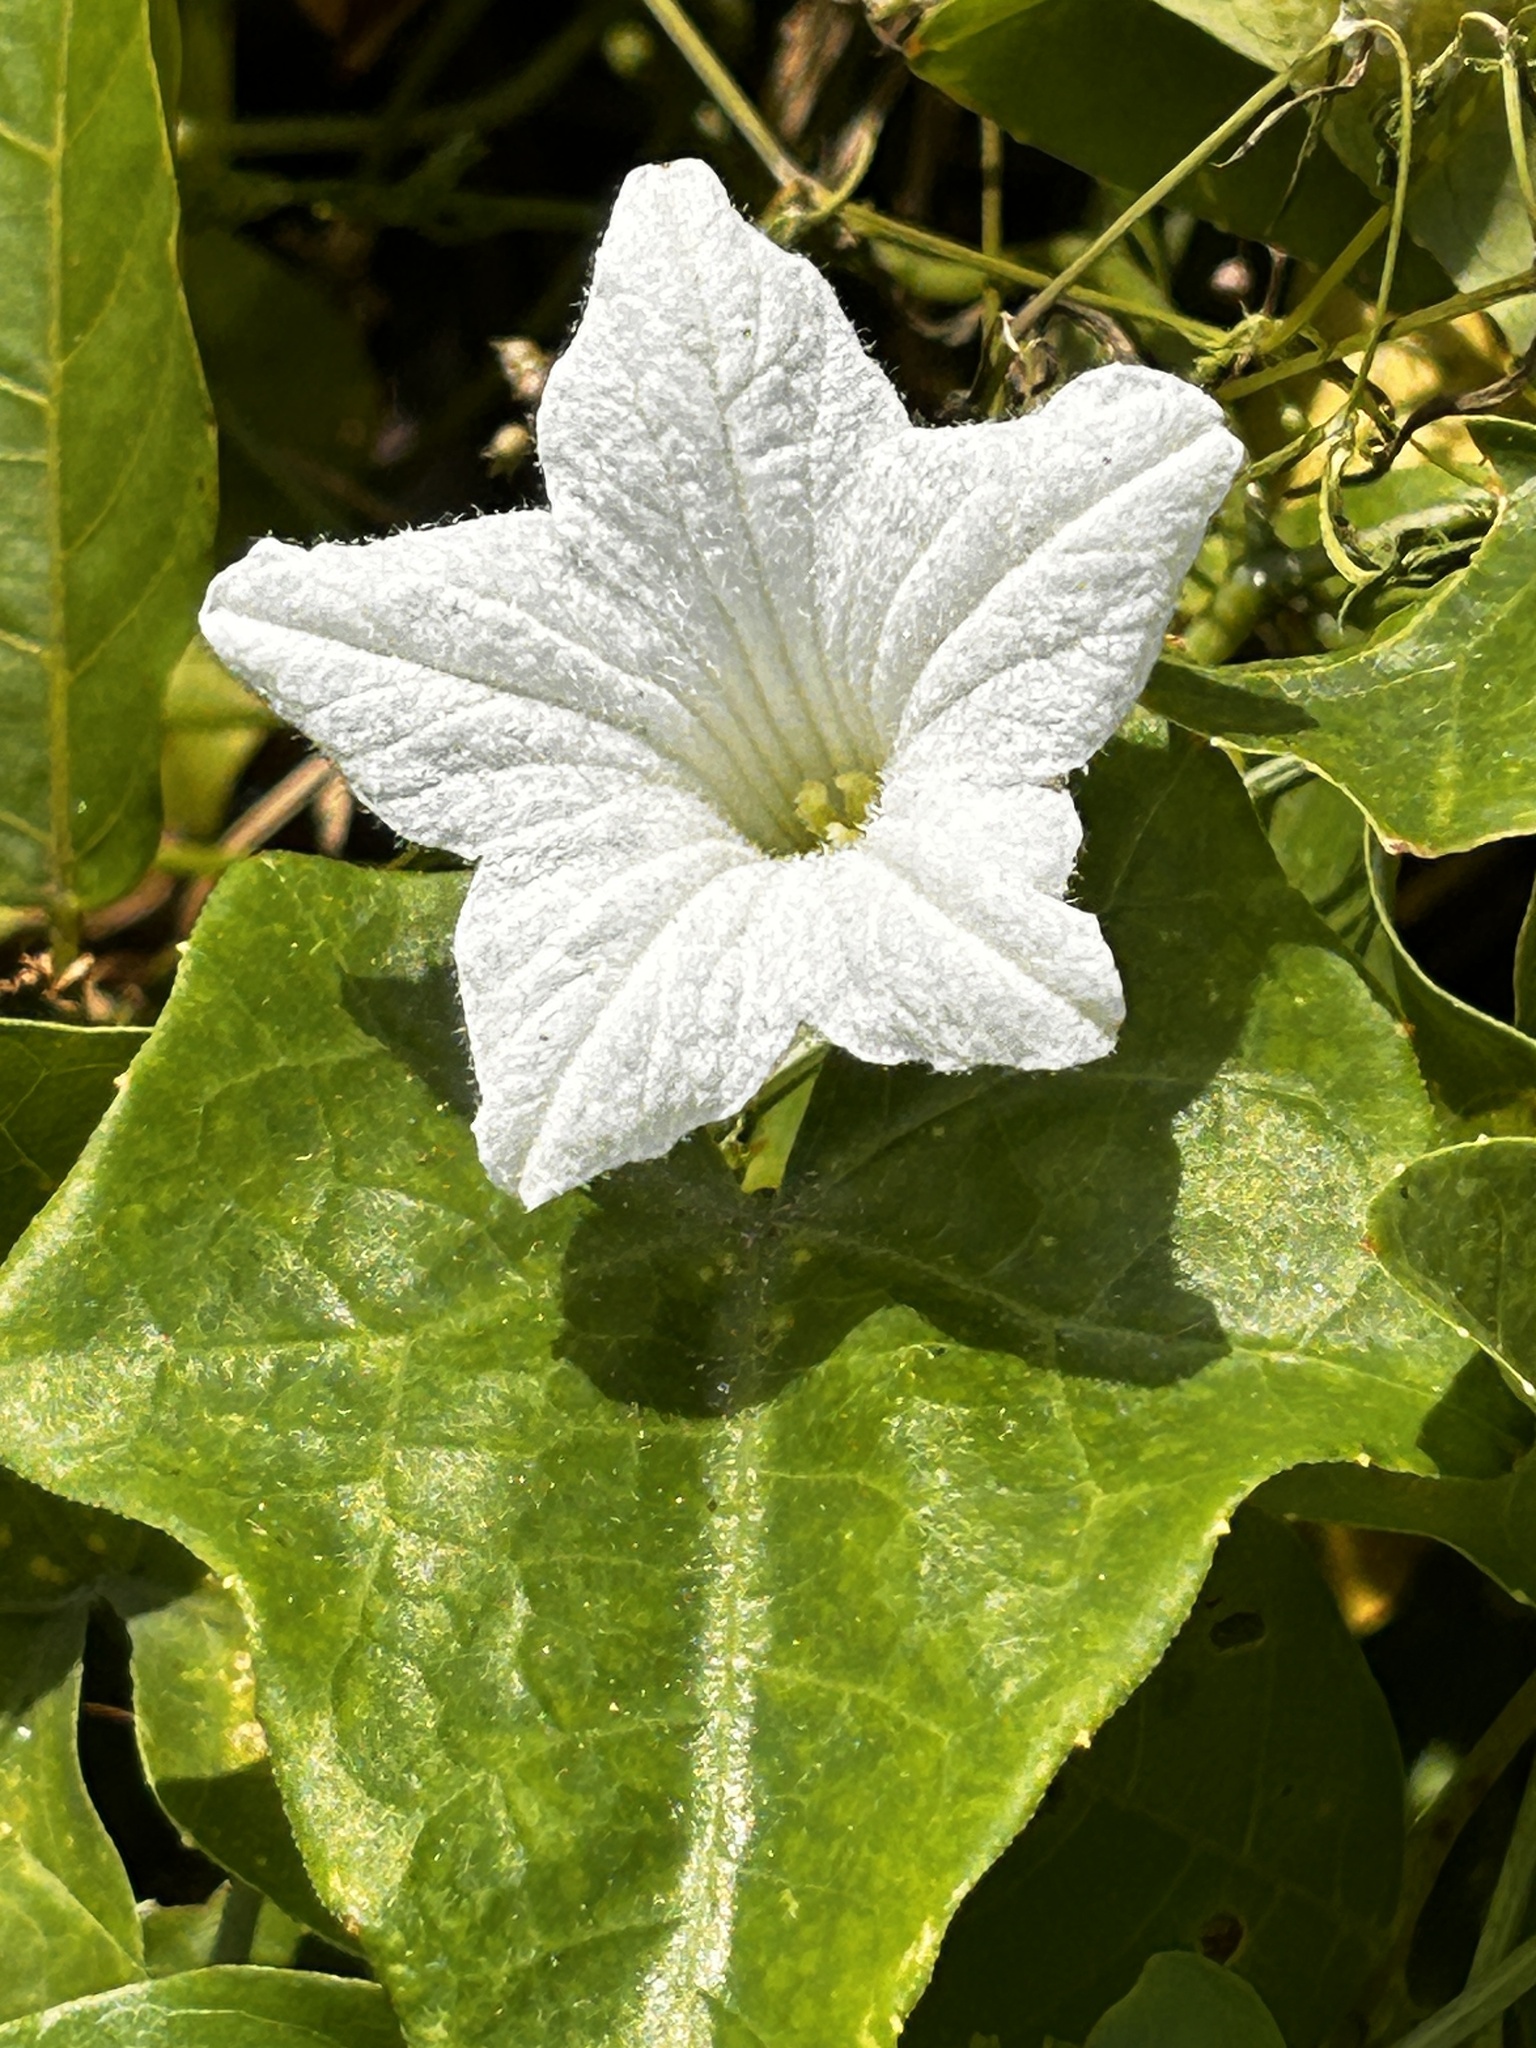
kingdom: Plantae
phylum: Tracheophyta
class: Magnoliopsida
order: Cucurbitales
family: Cucurbitaceae
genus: Coccinia
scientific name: Coccinia grandis
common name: Ivy gourd
